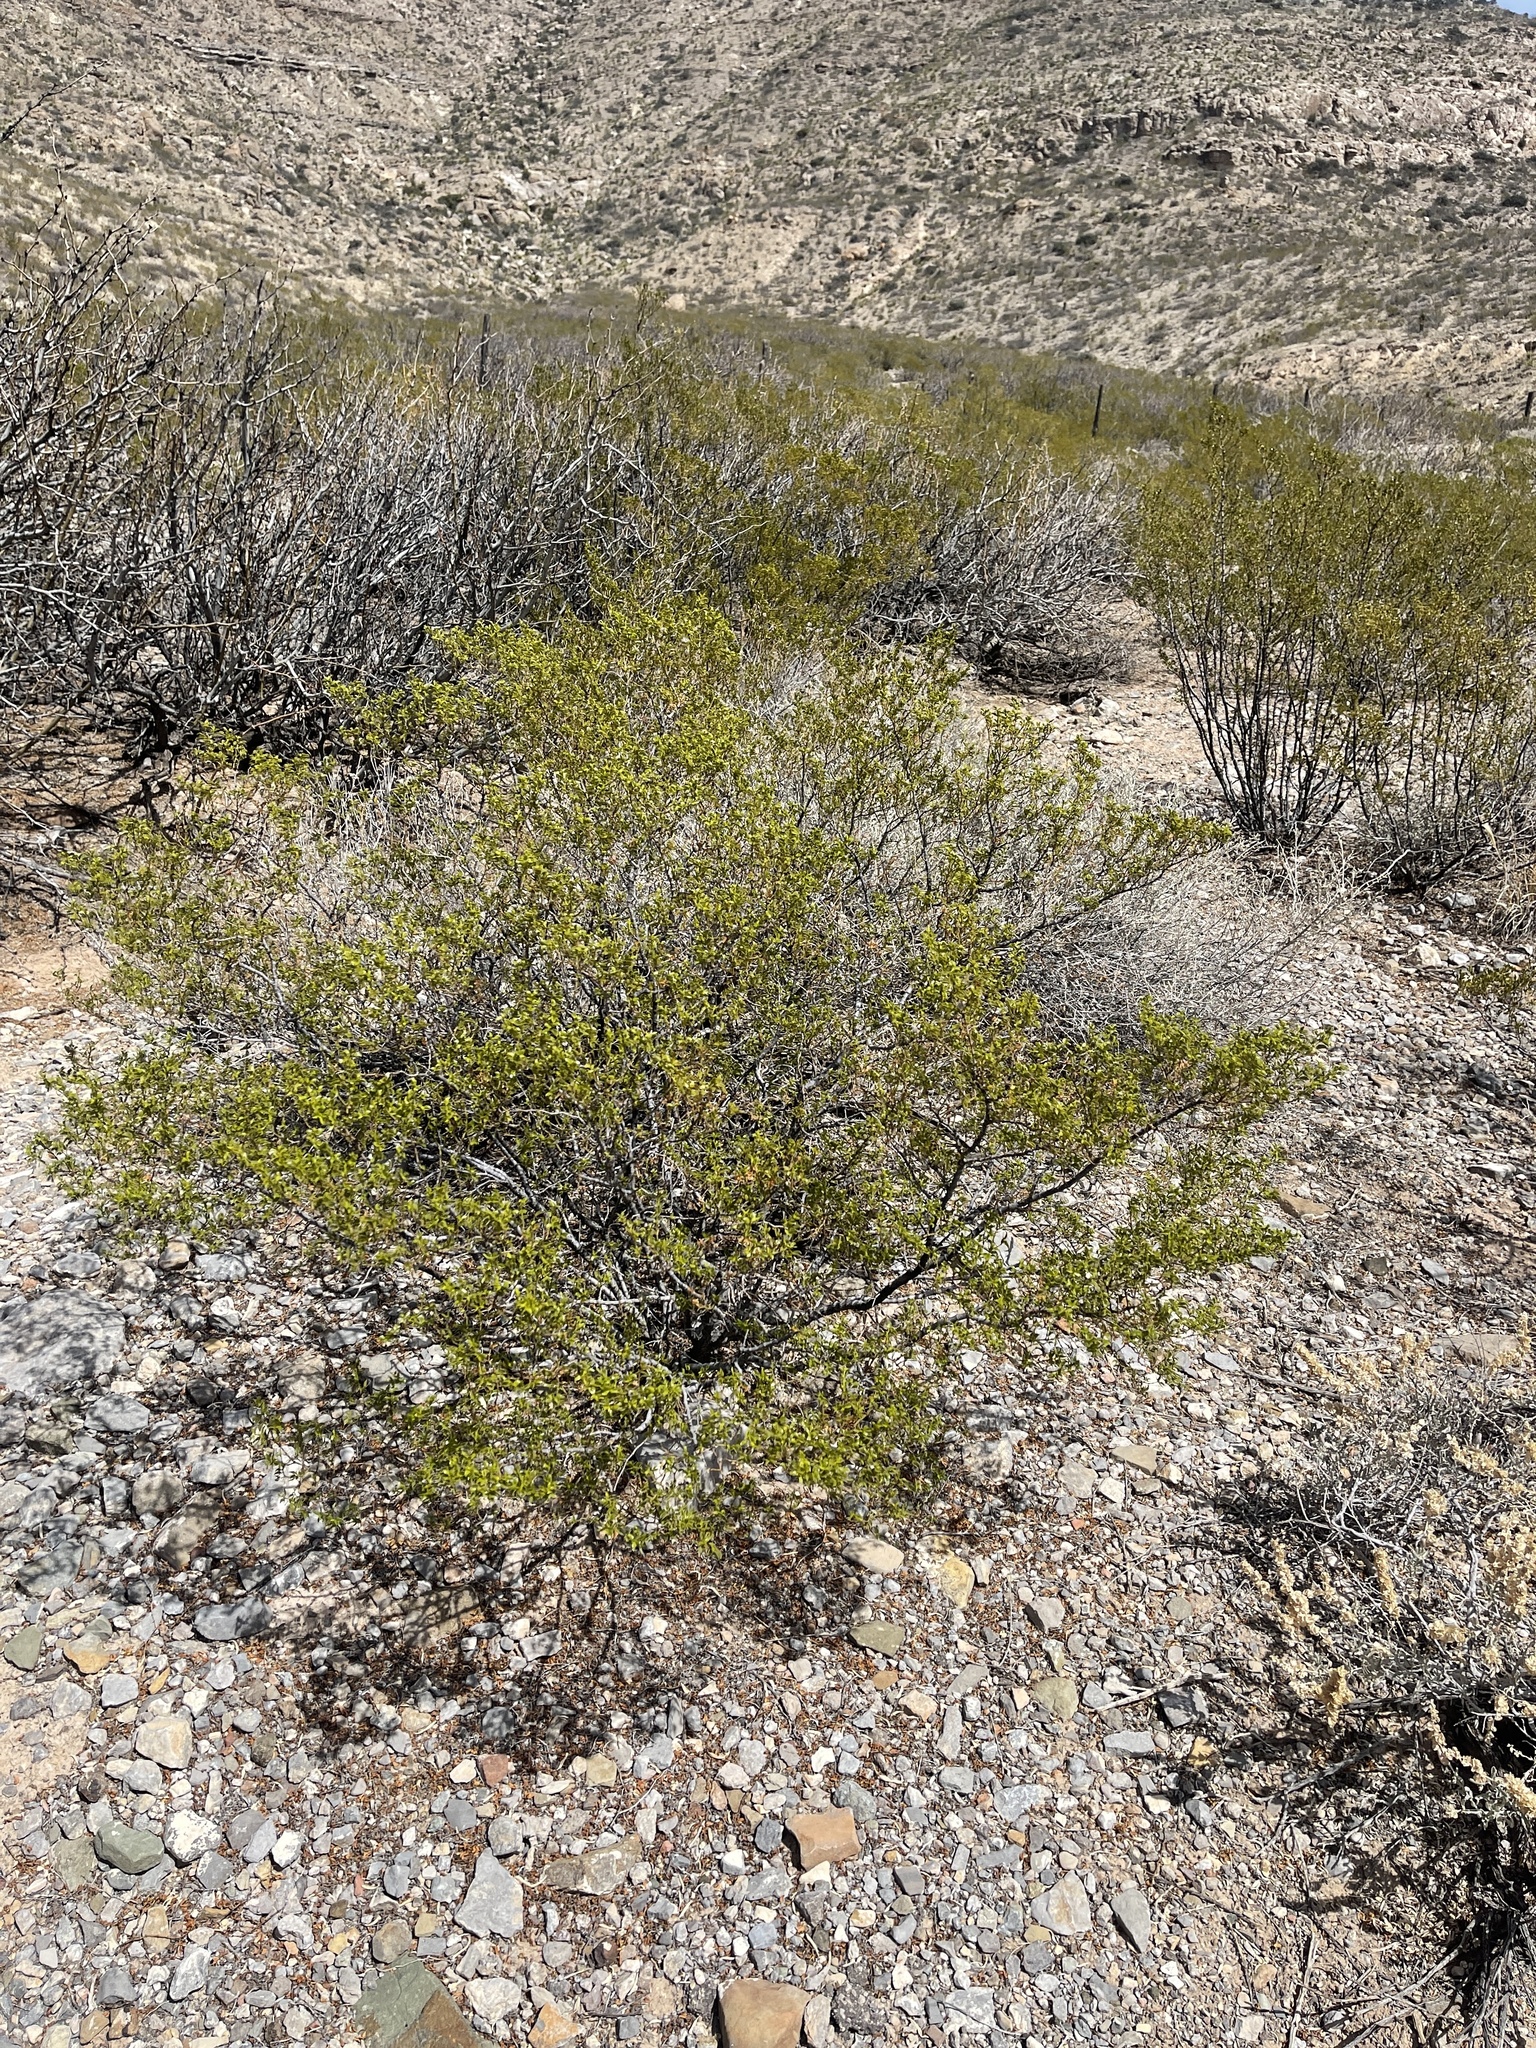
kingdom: Plantae
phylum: Tracheophyta
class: Magnoliopsida
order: Zygophyllales
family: Zygophyllaceae
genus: Larrea
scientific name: Larrea tridentata
